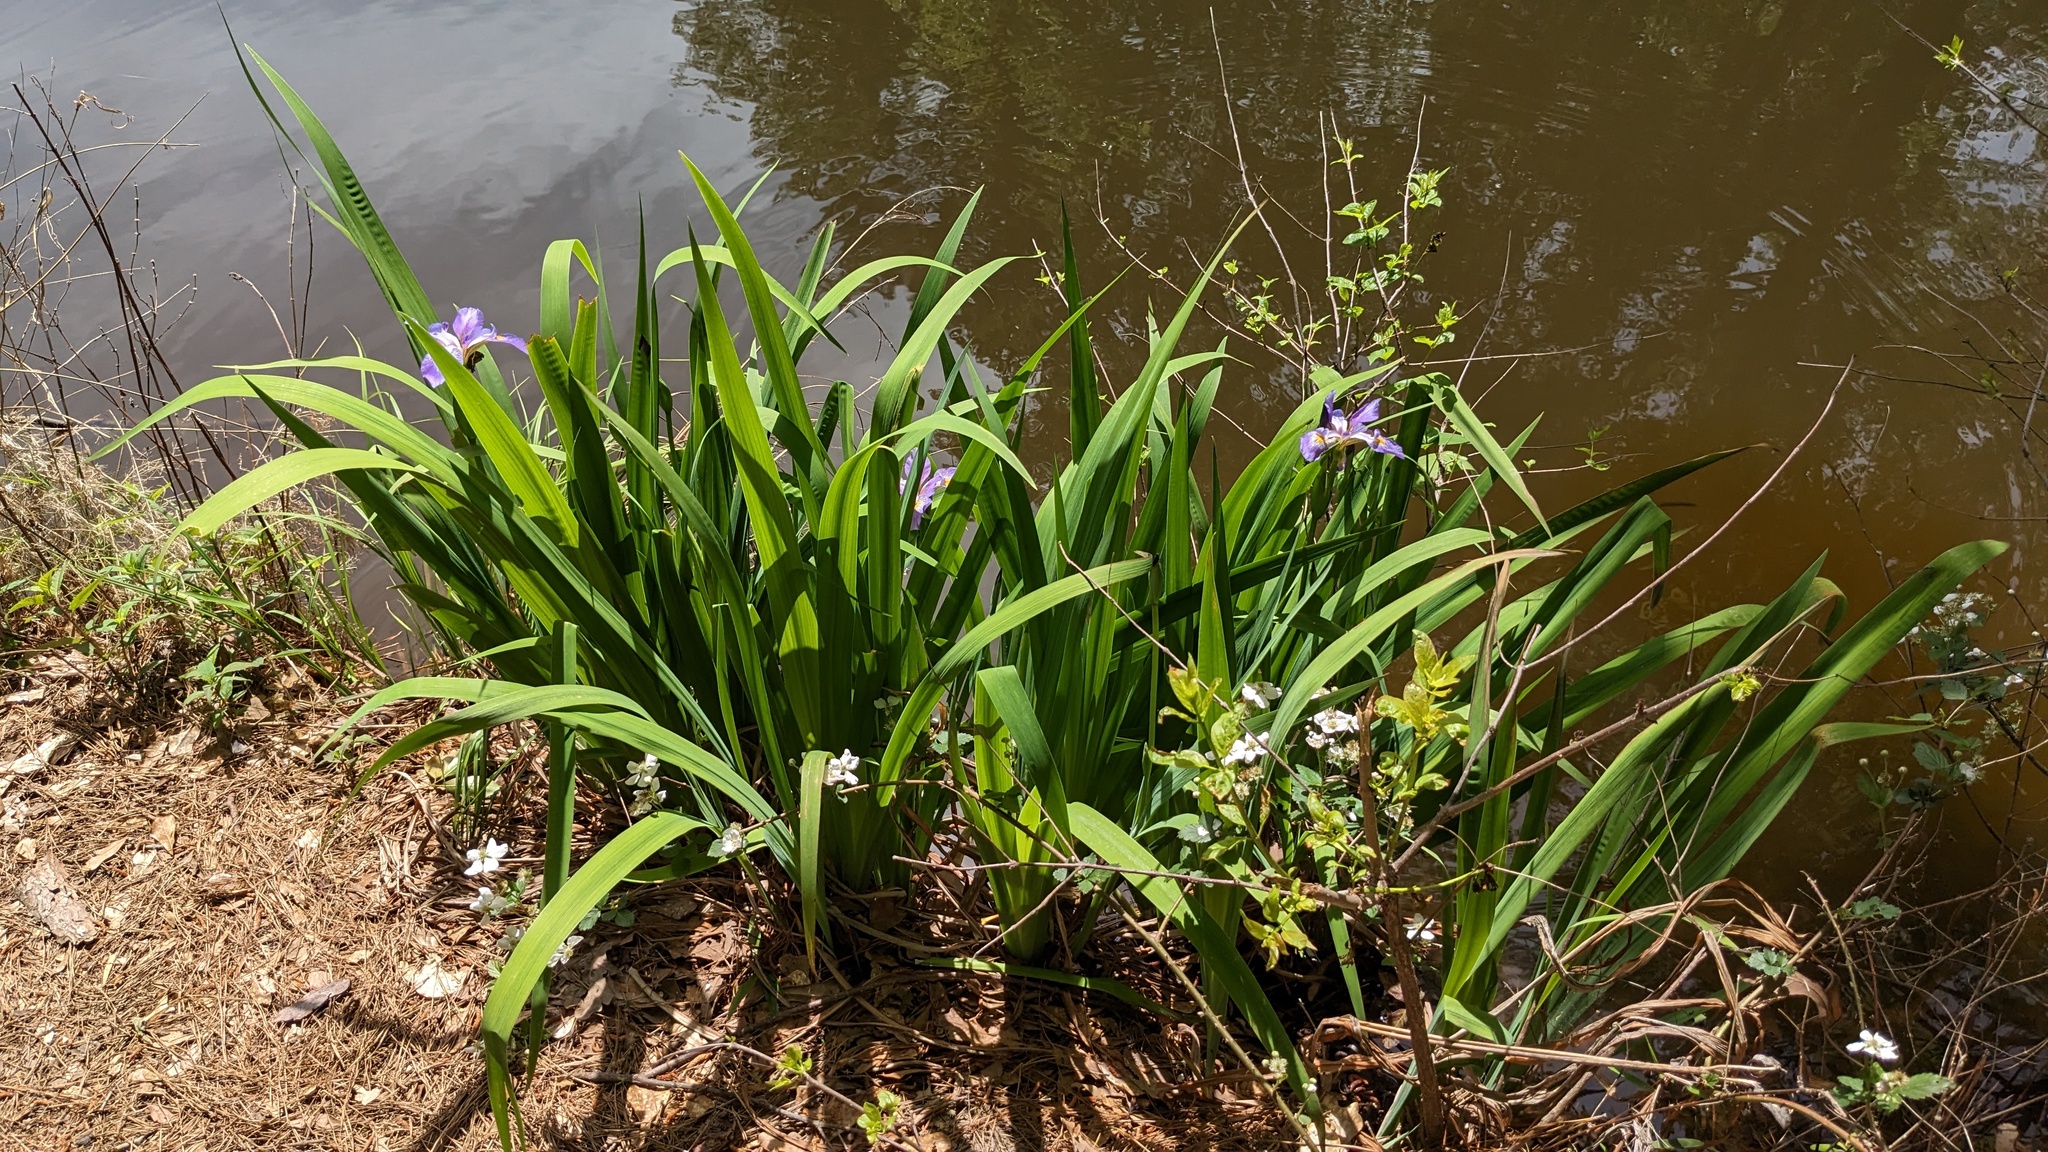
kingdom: Plantae
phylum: Tracheophyta
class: Liliopsida
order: Asparagales
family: Iridaceae
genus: Iris
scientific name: Iris virginica
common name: Southern blue flag
